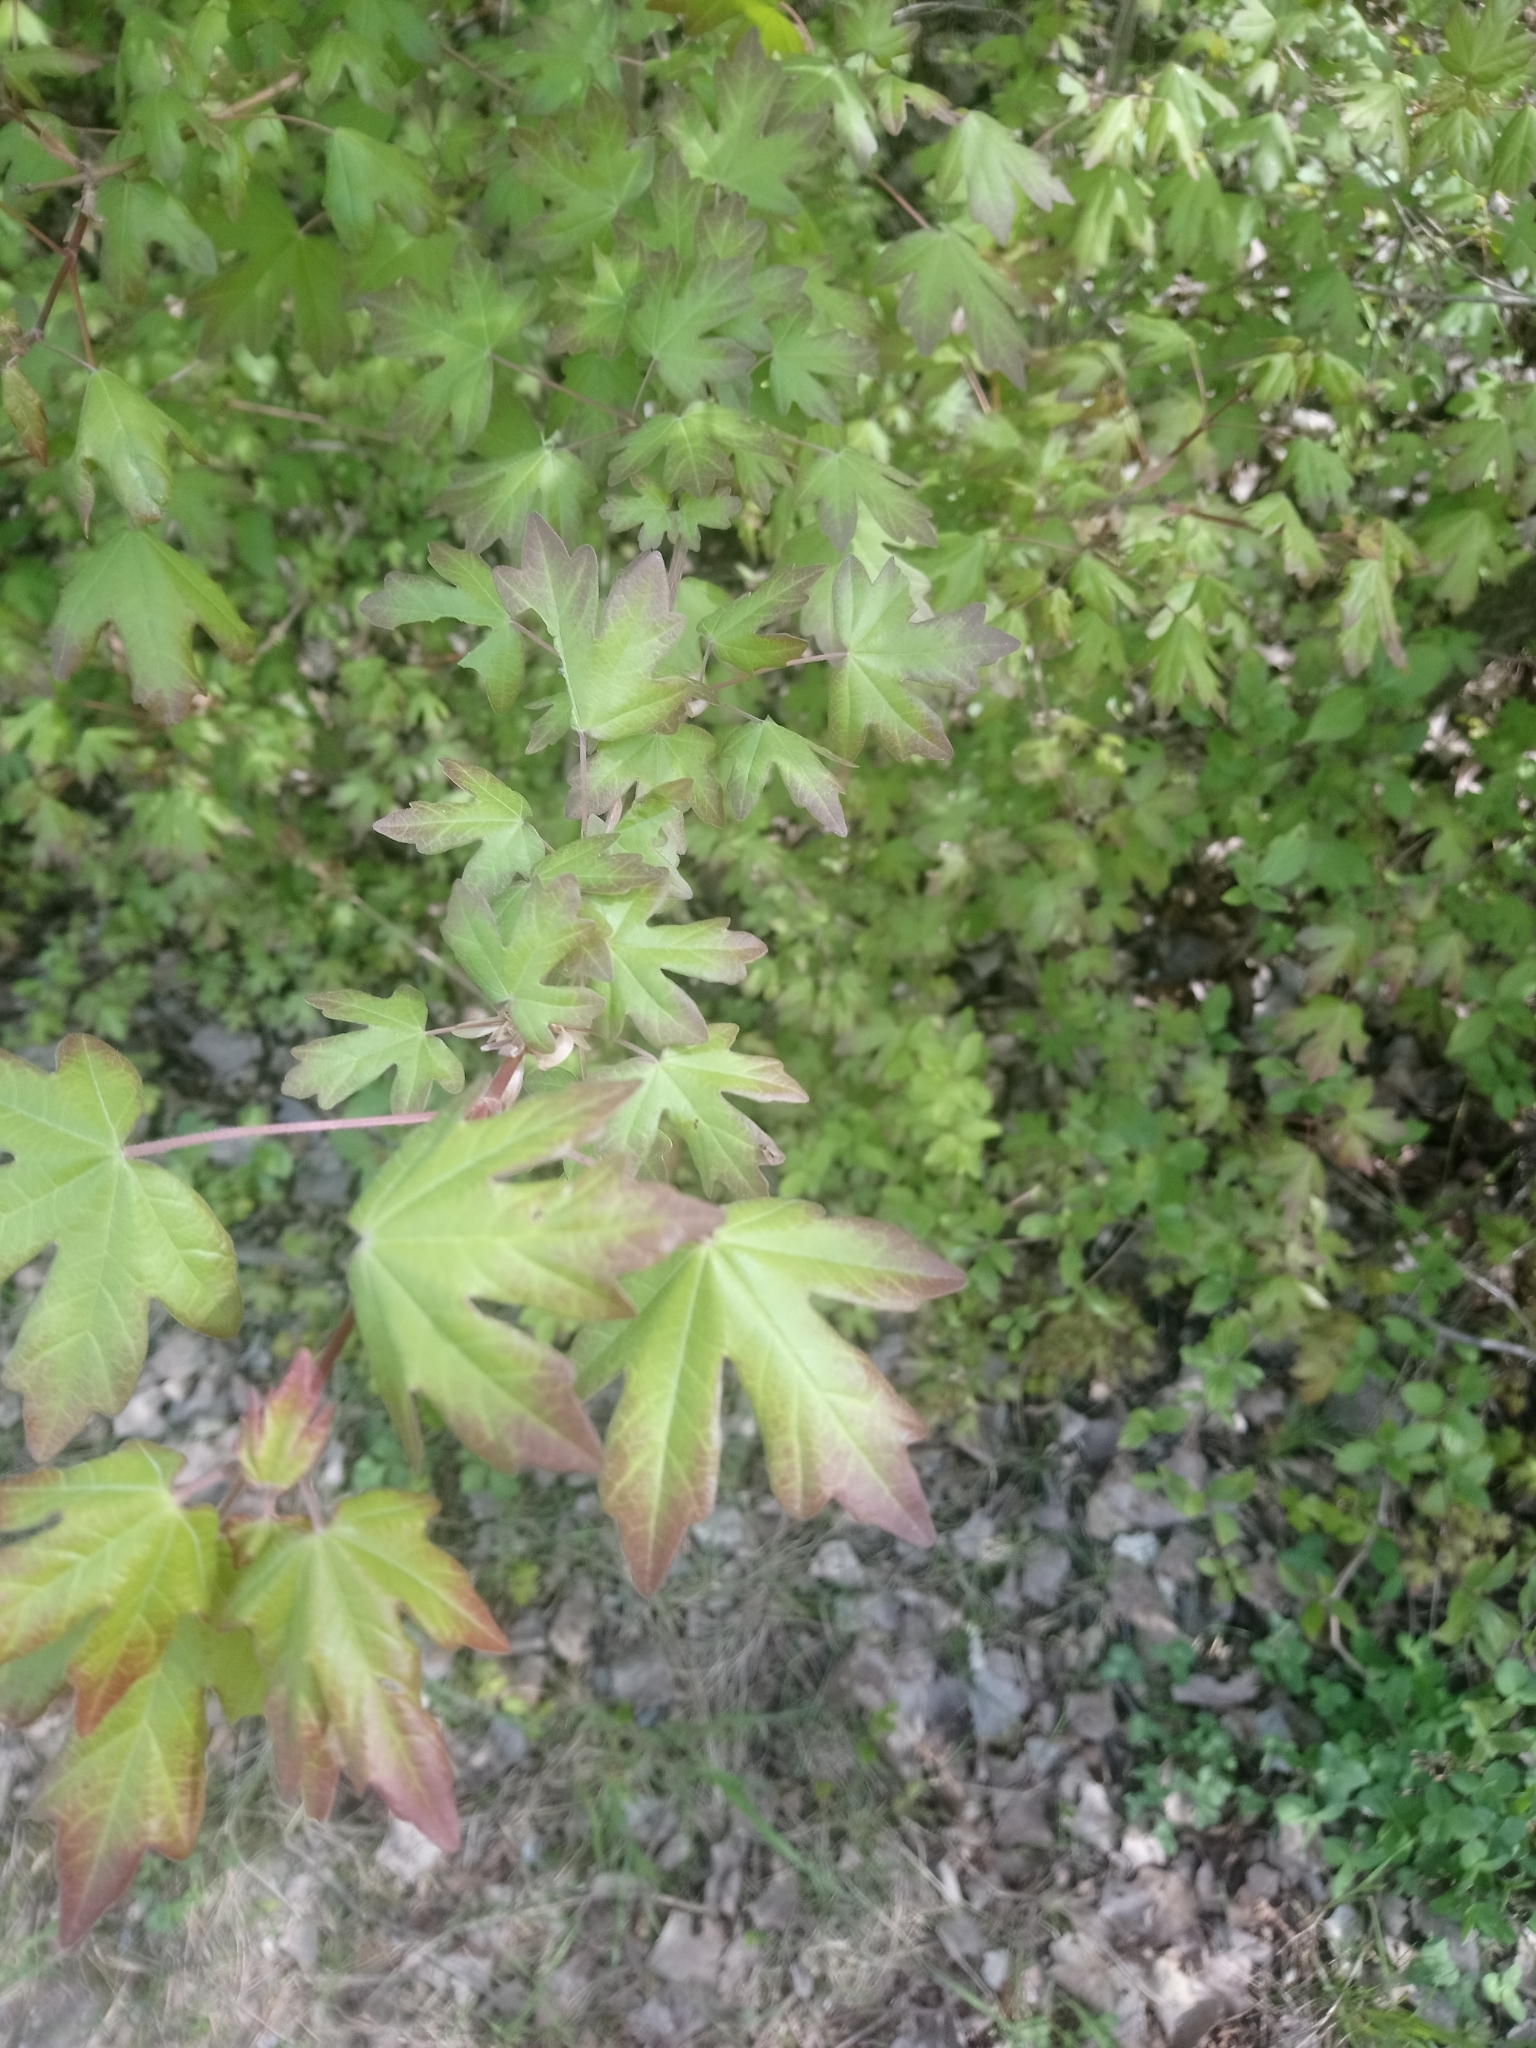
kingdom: Plantae
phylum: Tracheophyta
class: Magnoliopsida
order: Sapindales
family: Sapindaceae
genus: Acer
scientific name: Acer campestre
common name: Field maple
